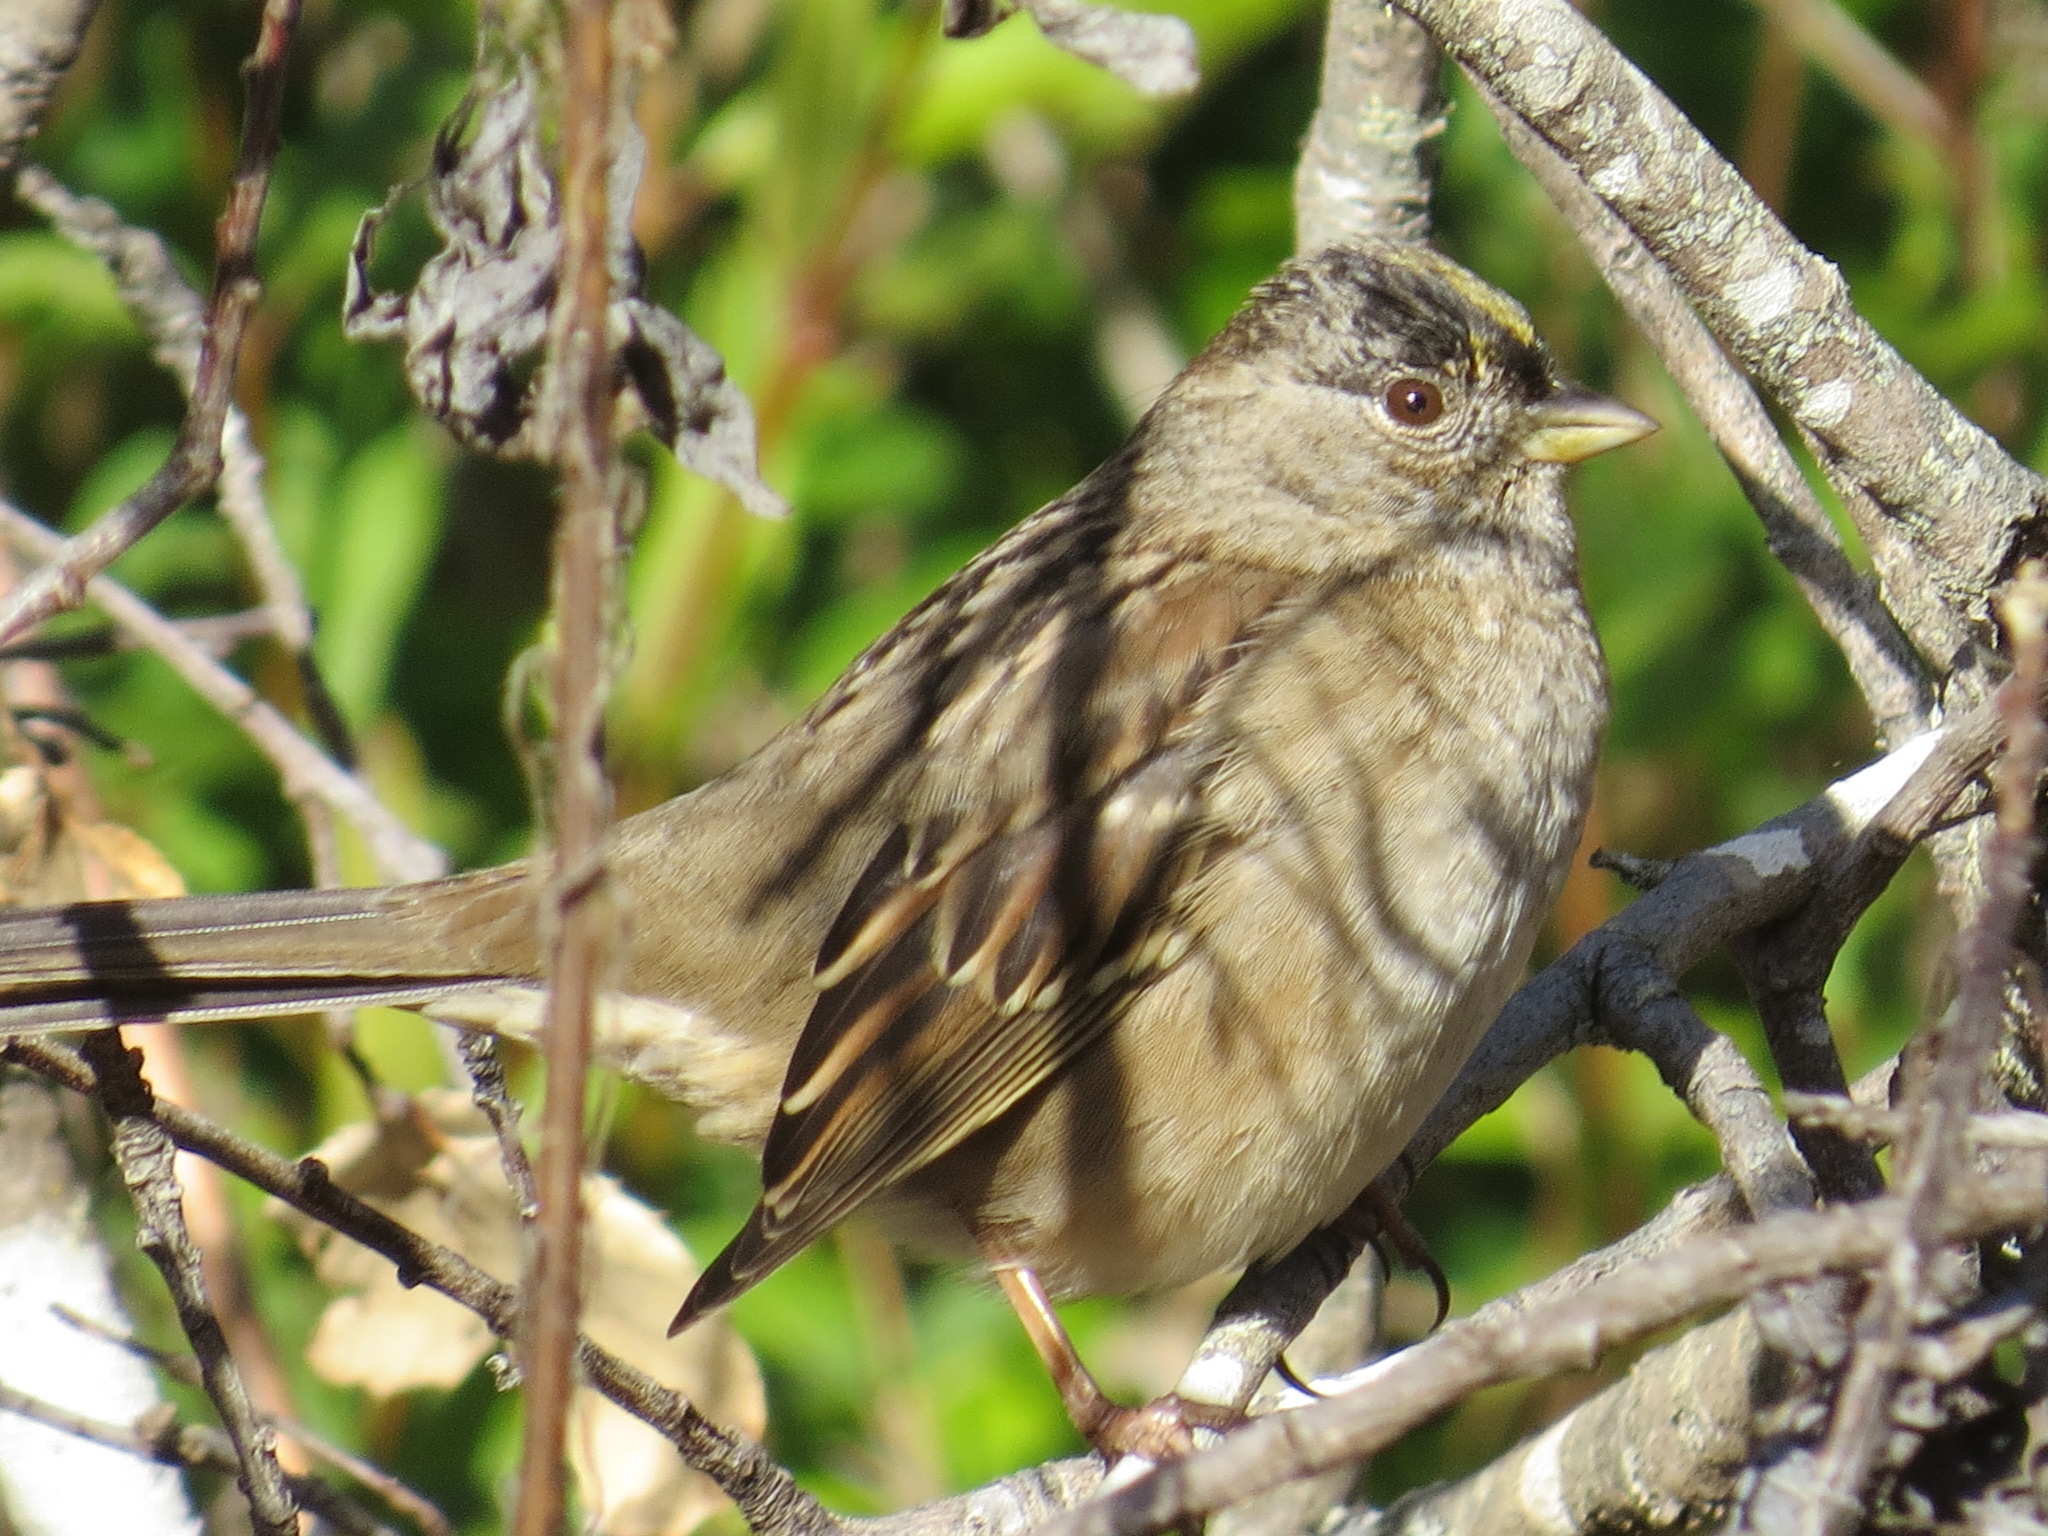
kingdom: Animalia
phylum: Chordata
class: Aves
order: Passeriformes
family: Passerellidae
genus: Zonotrichia
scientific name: Zonotrichia atricapilla
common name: Golden-crowned sparrow
